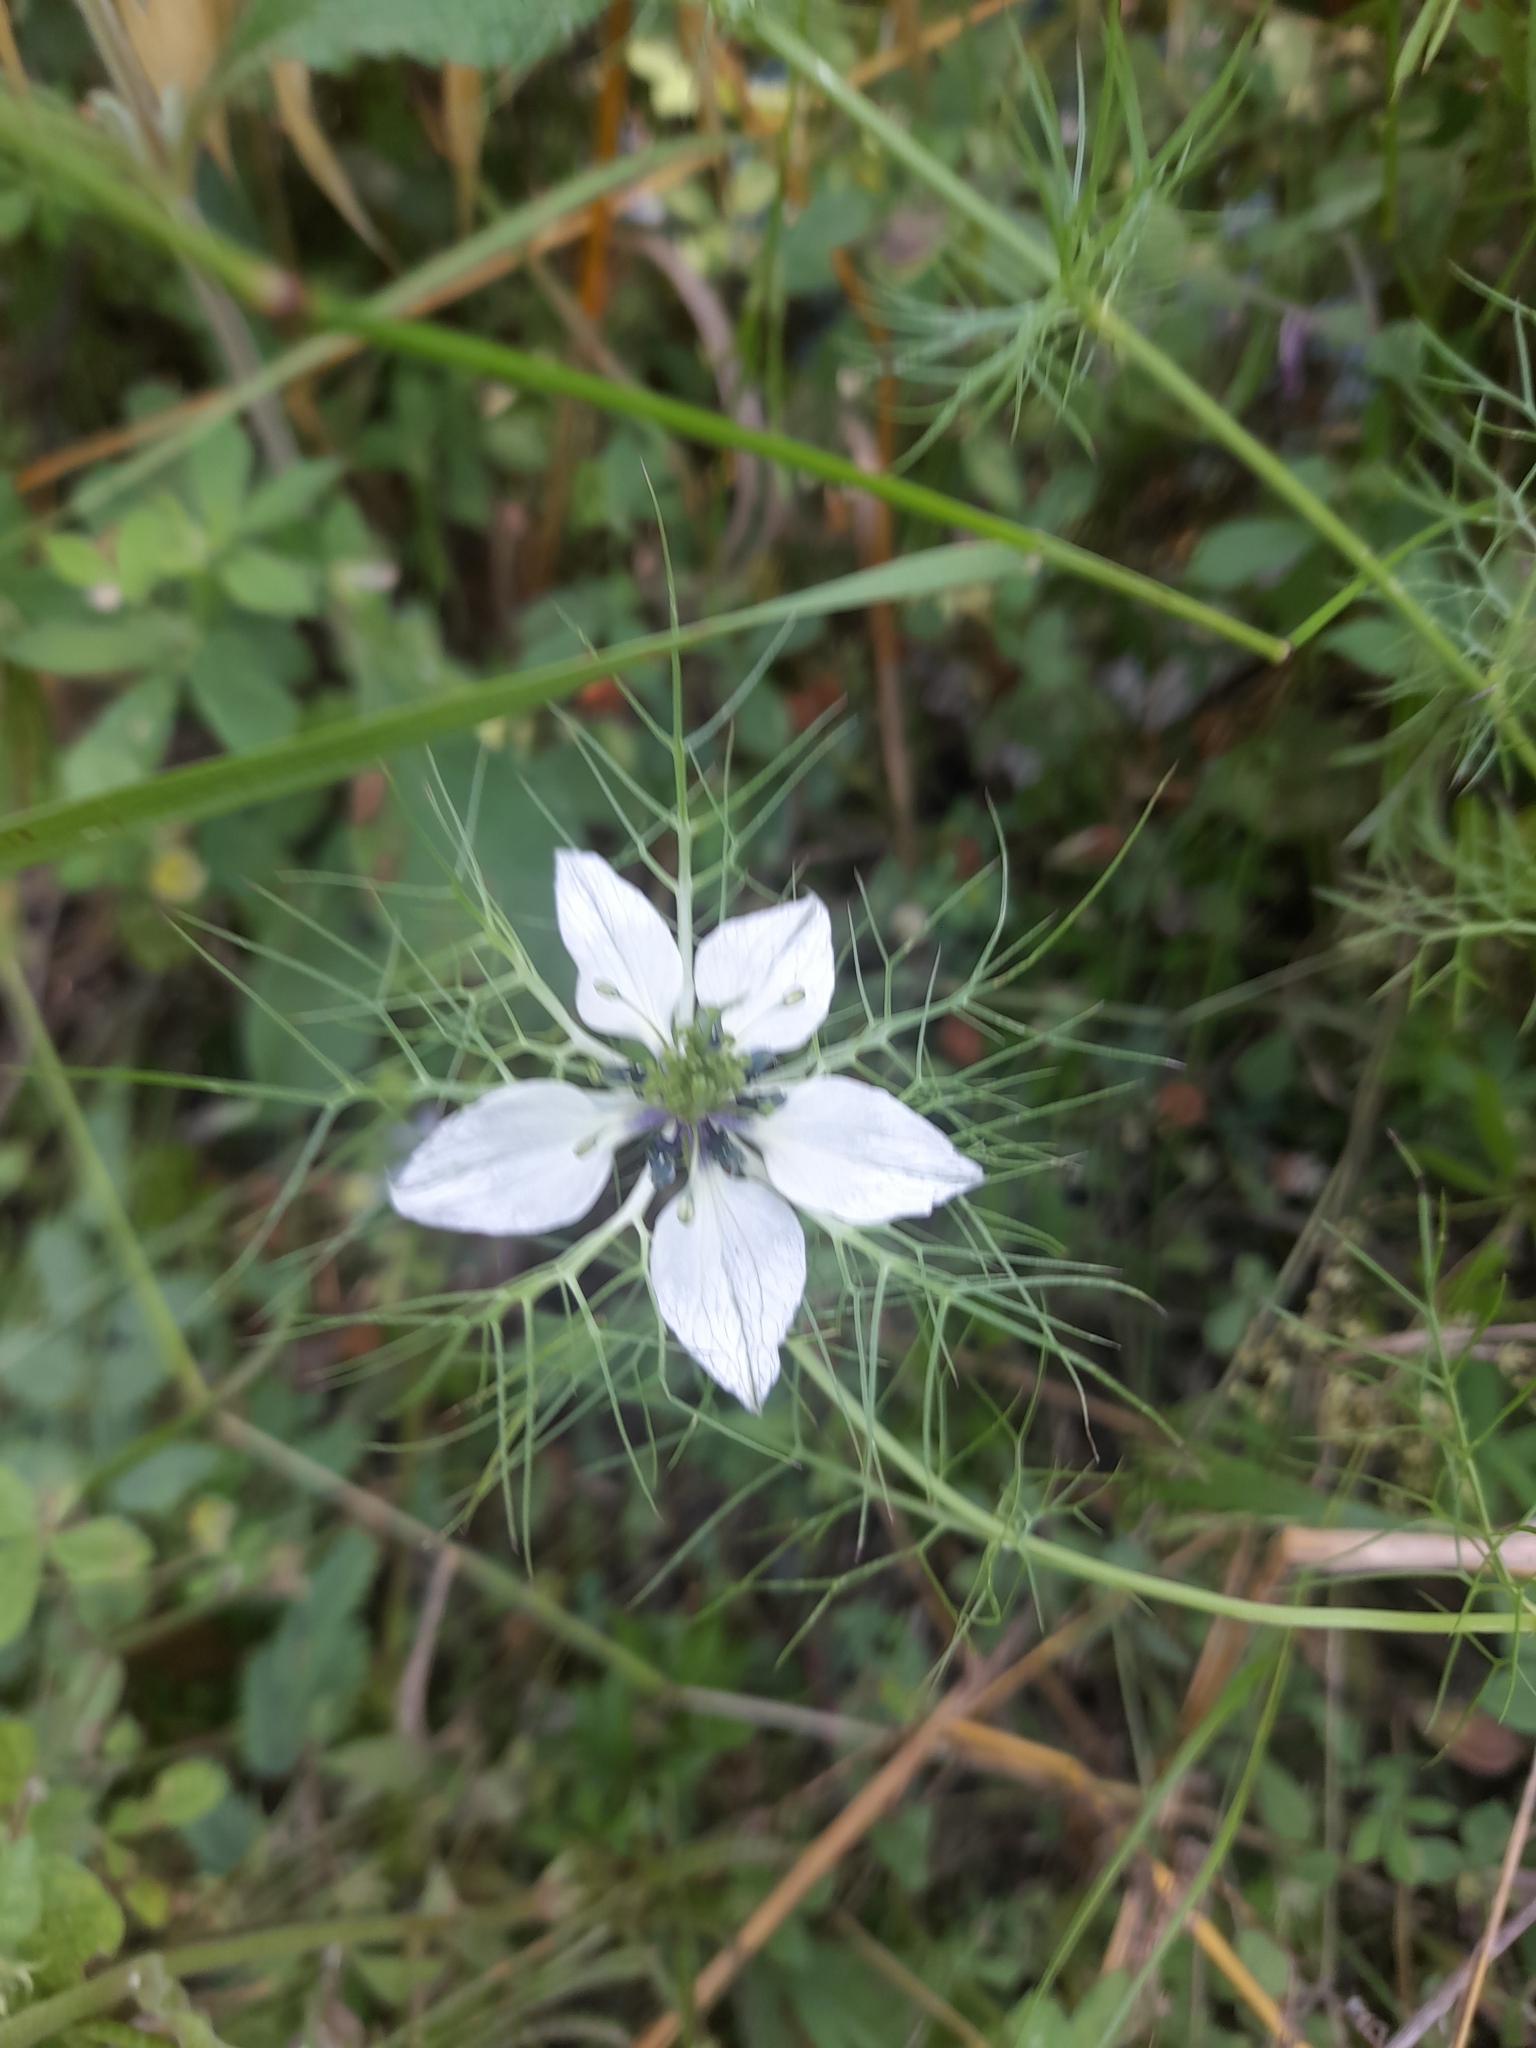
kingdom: Plantae
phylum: Tracheophyta
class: Magnoliopsida
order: Ranunculales
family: Ranunculaceae
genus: Nigella
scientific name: Nigella damascena
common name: Love-in-a-mist
